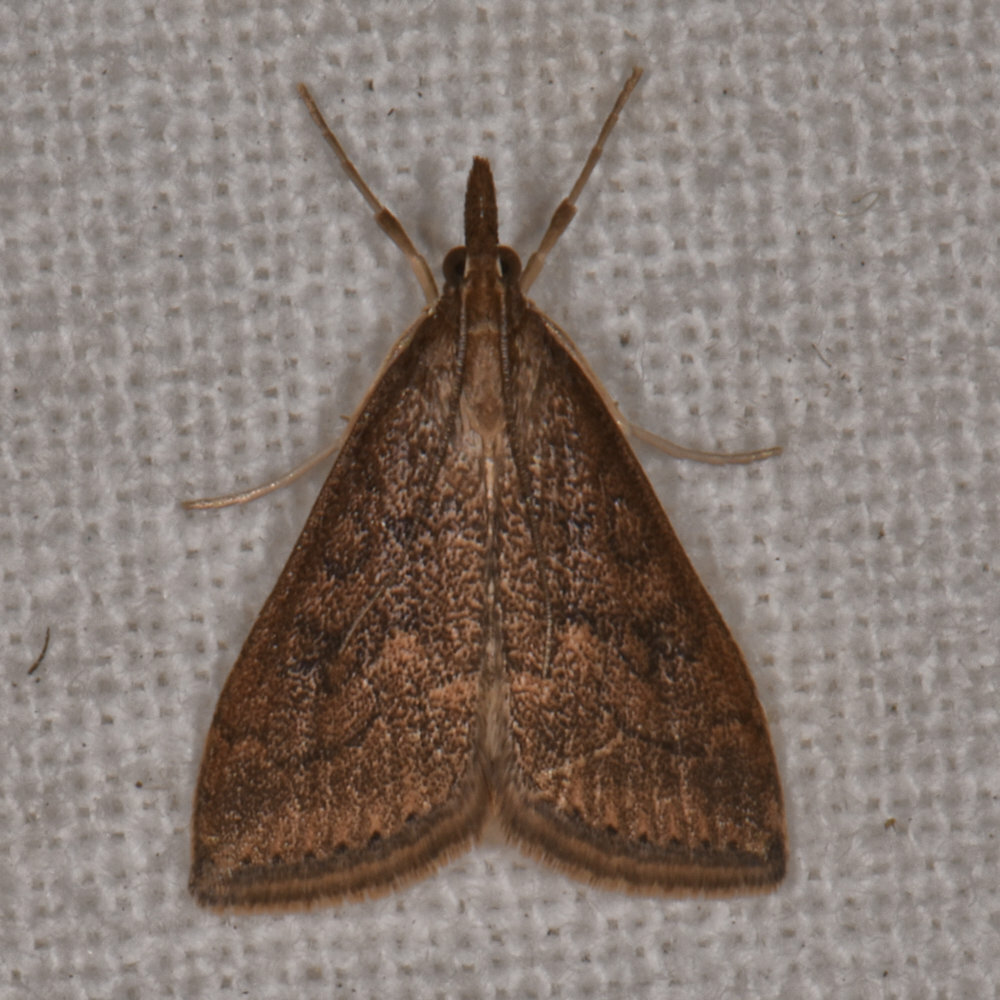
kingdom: Animalia
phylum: Arthropoda
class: Insecta
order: Lepidoptera
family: Crambidae
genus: Udea
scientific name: Udea rubigalis
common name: Celery leaftier moth
